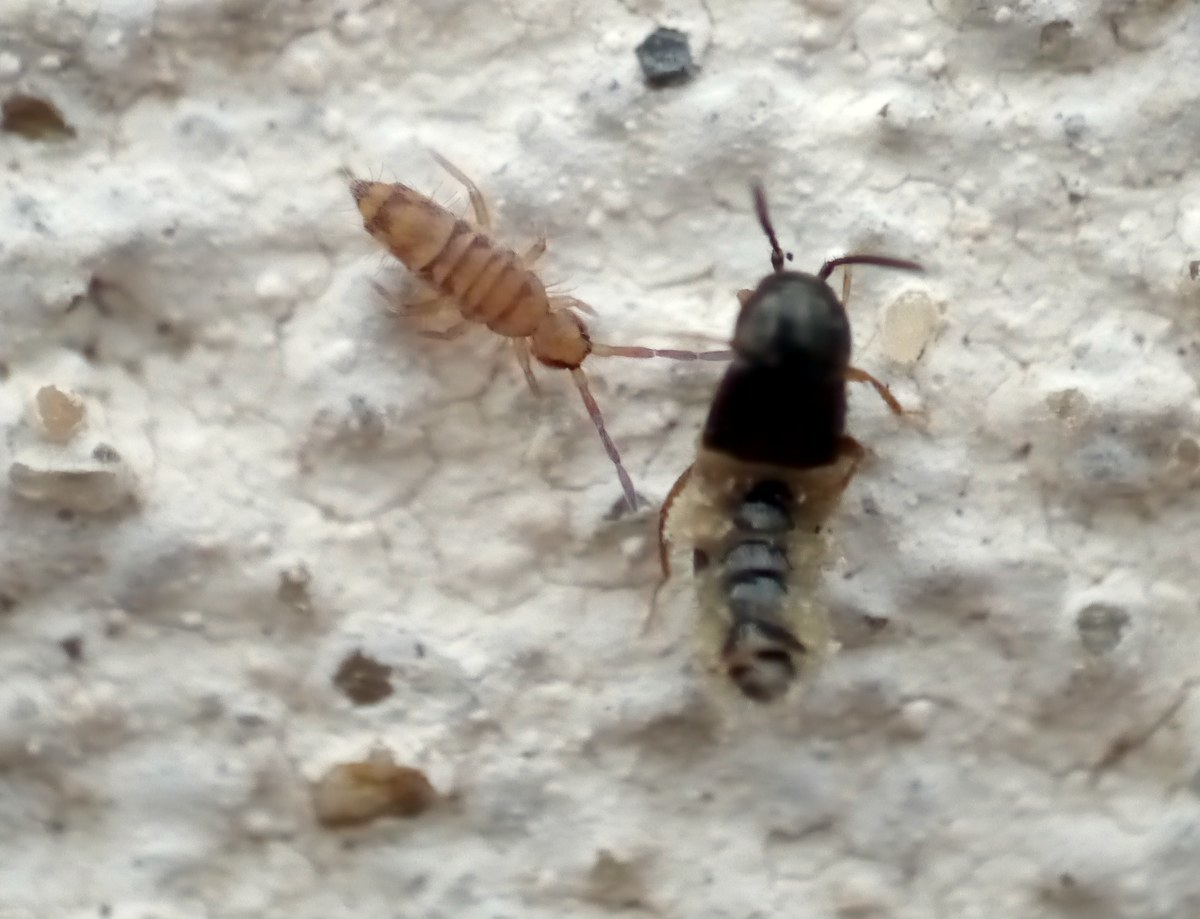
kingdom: Animalia
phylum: Arthropoda
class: Collembola
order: Entomobryomorpha
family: Entomobryidae
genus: Entomobrya
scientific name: Entomobrya multifasciata
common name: Springtail
